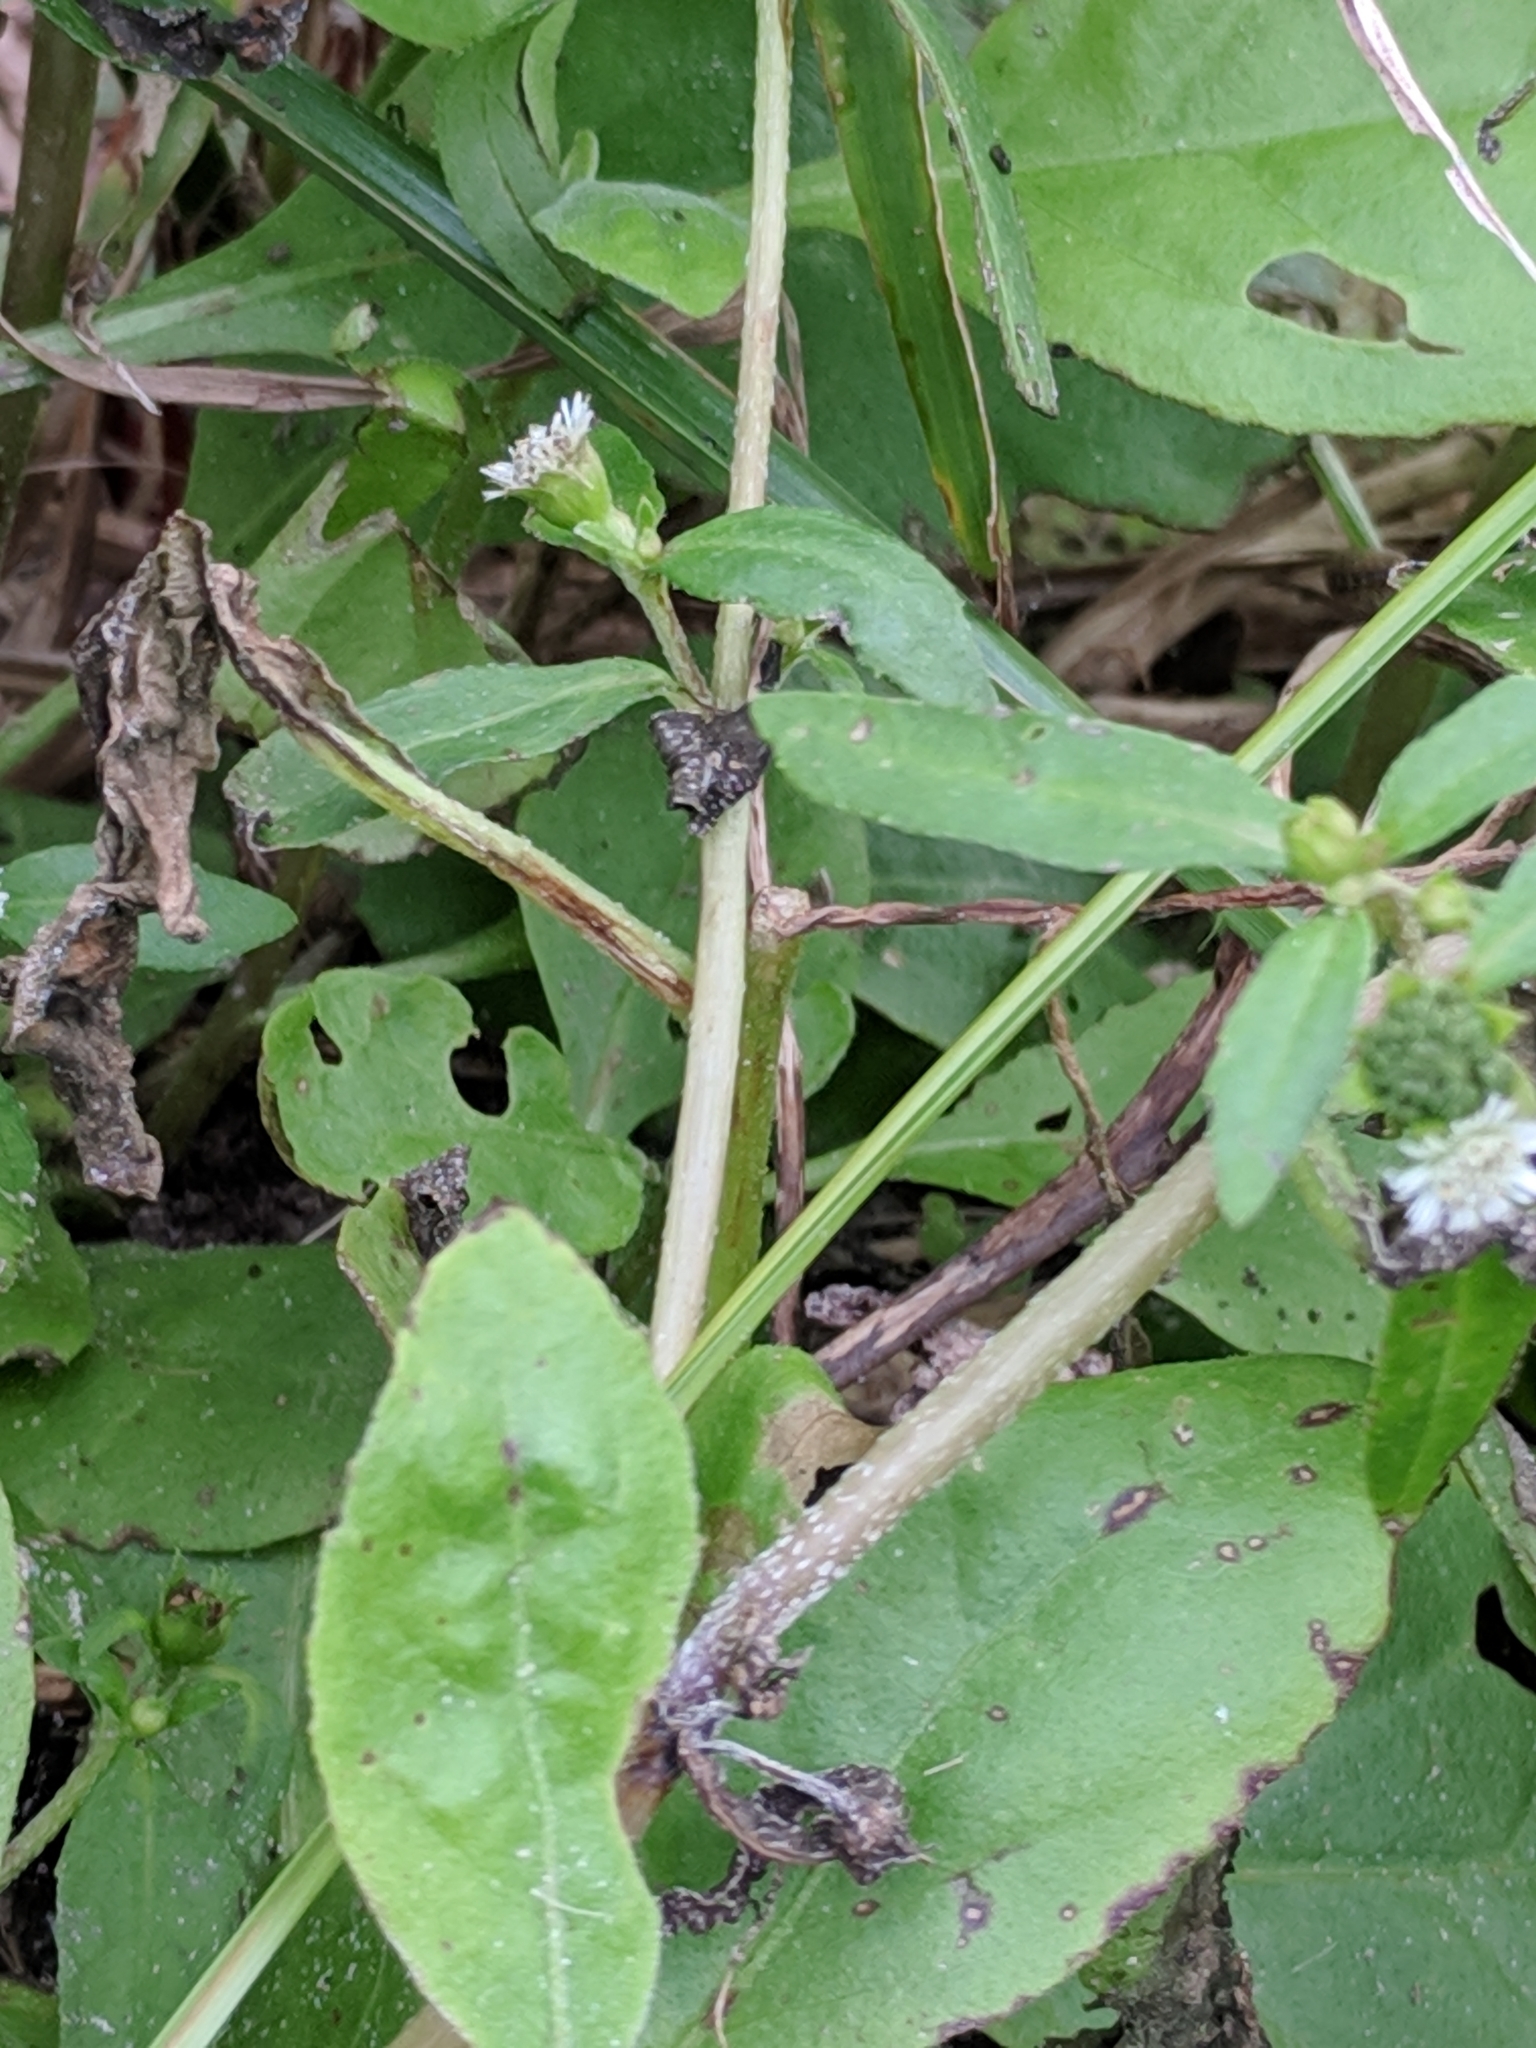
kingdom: Plantae
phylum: Tracheophyta
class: Magnoliopsida
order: Asterales
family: Asteraceae
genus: Eclipta
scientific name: Eclipta prostrata
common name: False daisy
